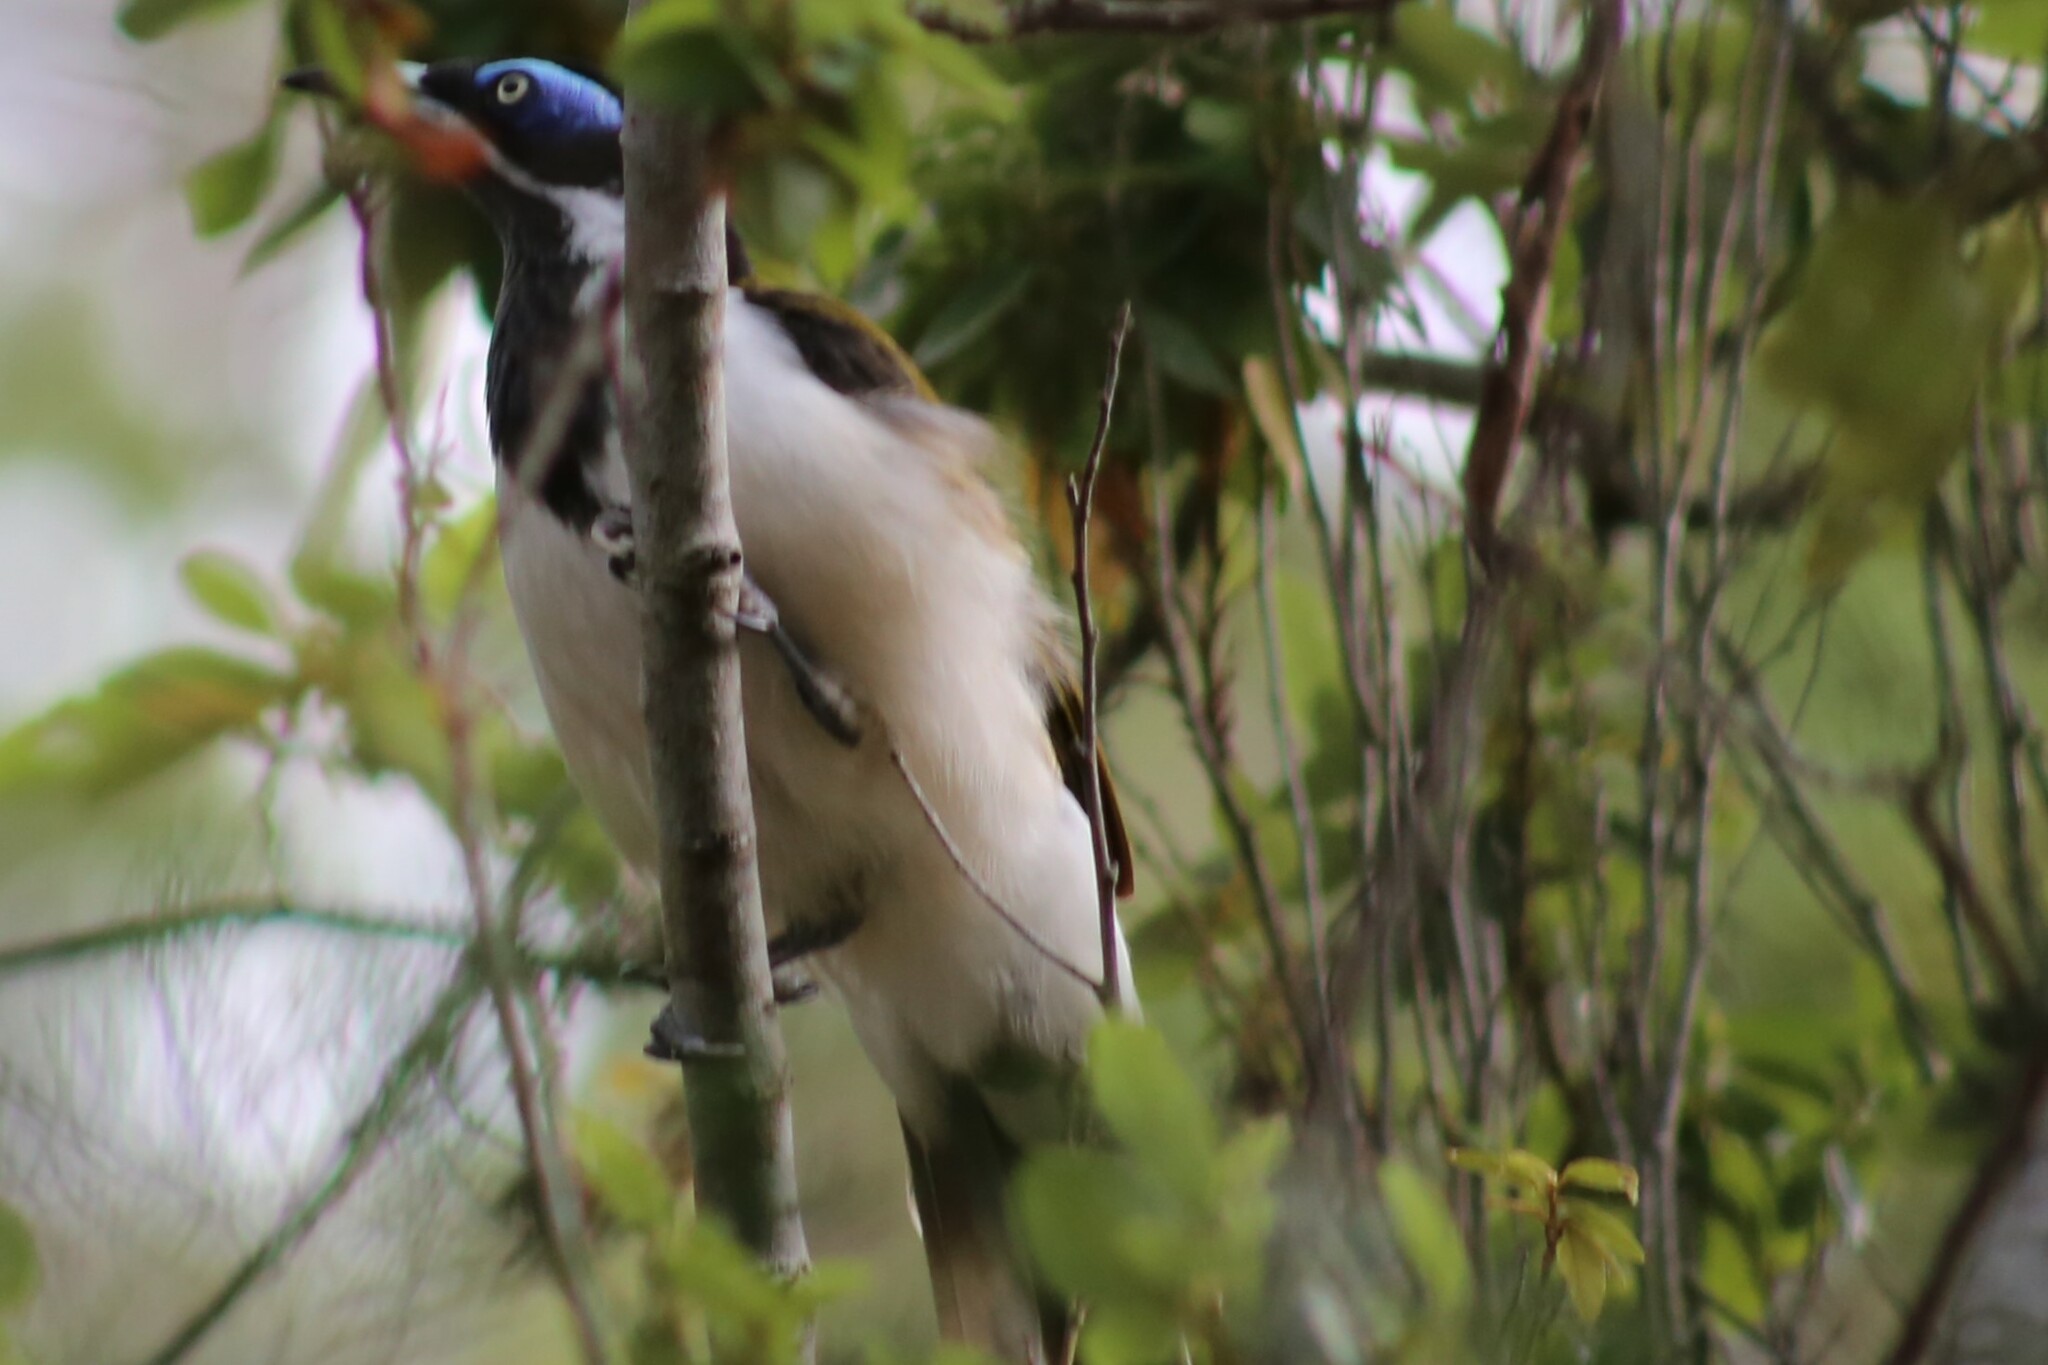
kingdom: Animalia
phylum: Chordata
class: Aves
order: Passeriformes
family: Meliphagidae
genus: Entomyzon
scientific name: Entomyzon cyanotis
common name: Blue-faced honeyeater
